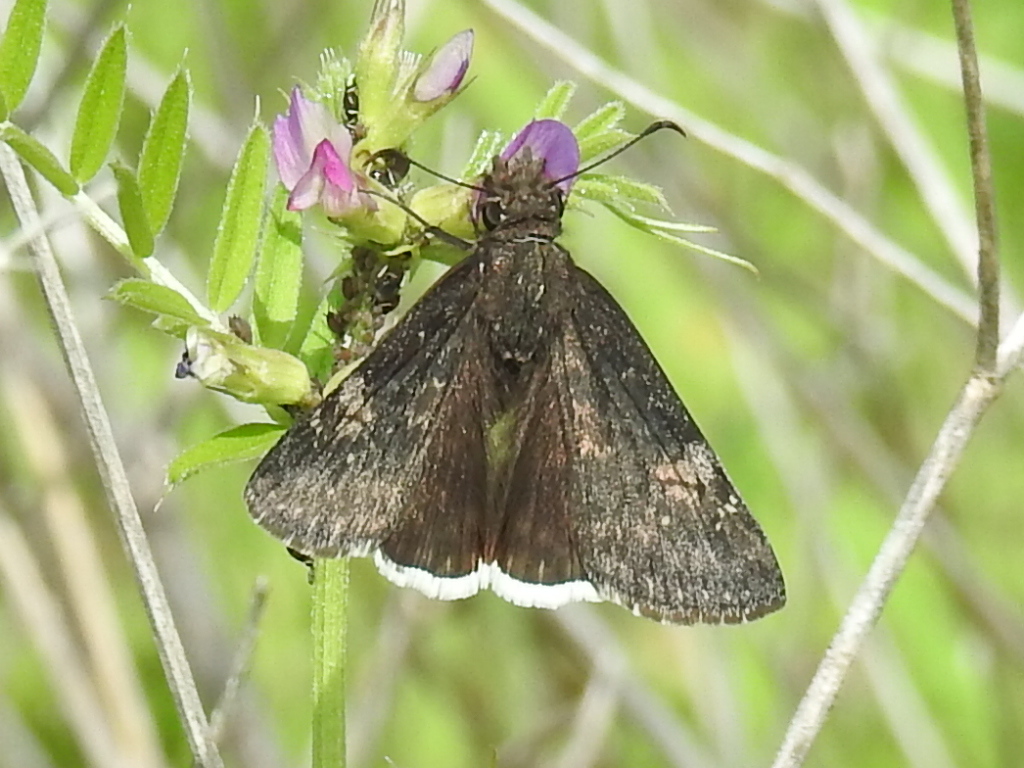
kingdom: Animalia
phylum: Arthropoda
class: Insecta
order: Lepidoptera
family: Hesperiidae
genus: Erynnis
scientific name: Erynnis funeralis
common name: Funereal duskywing
